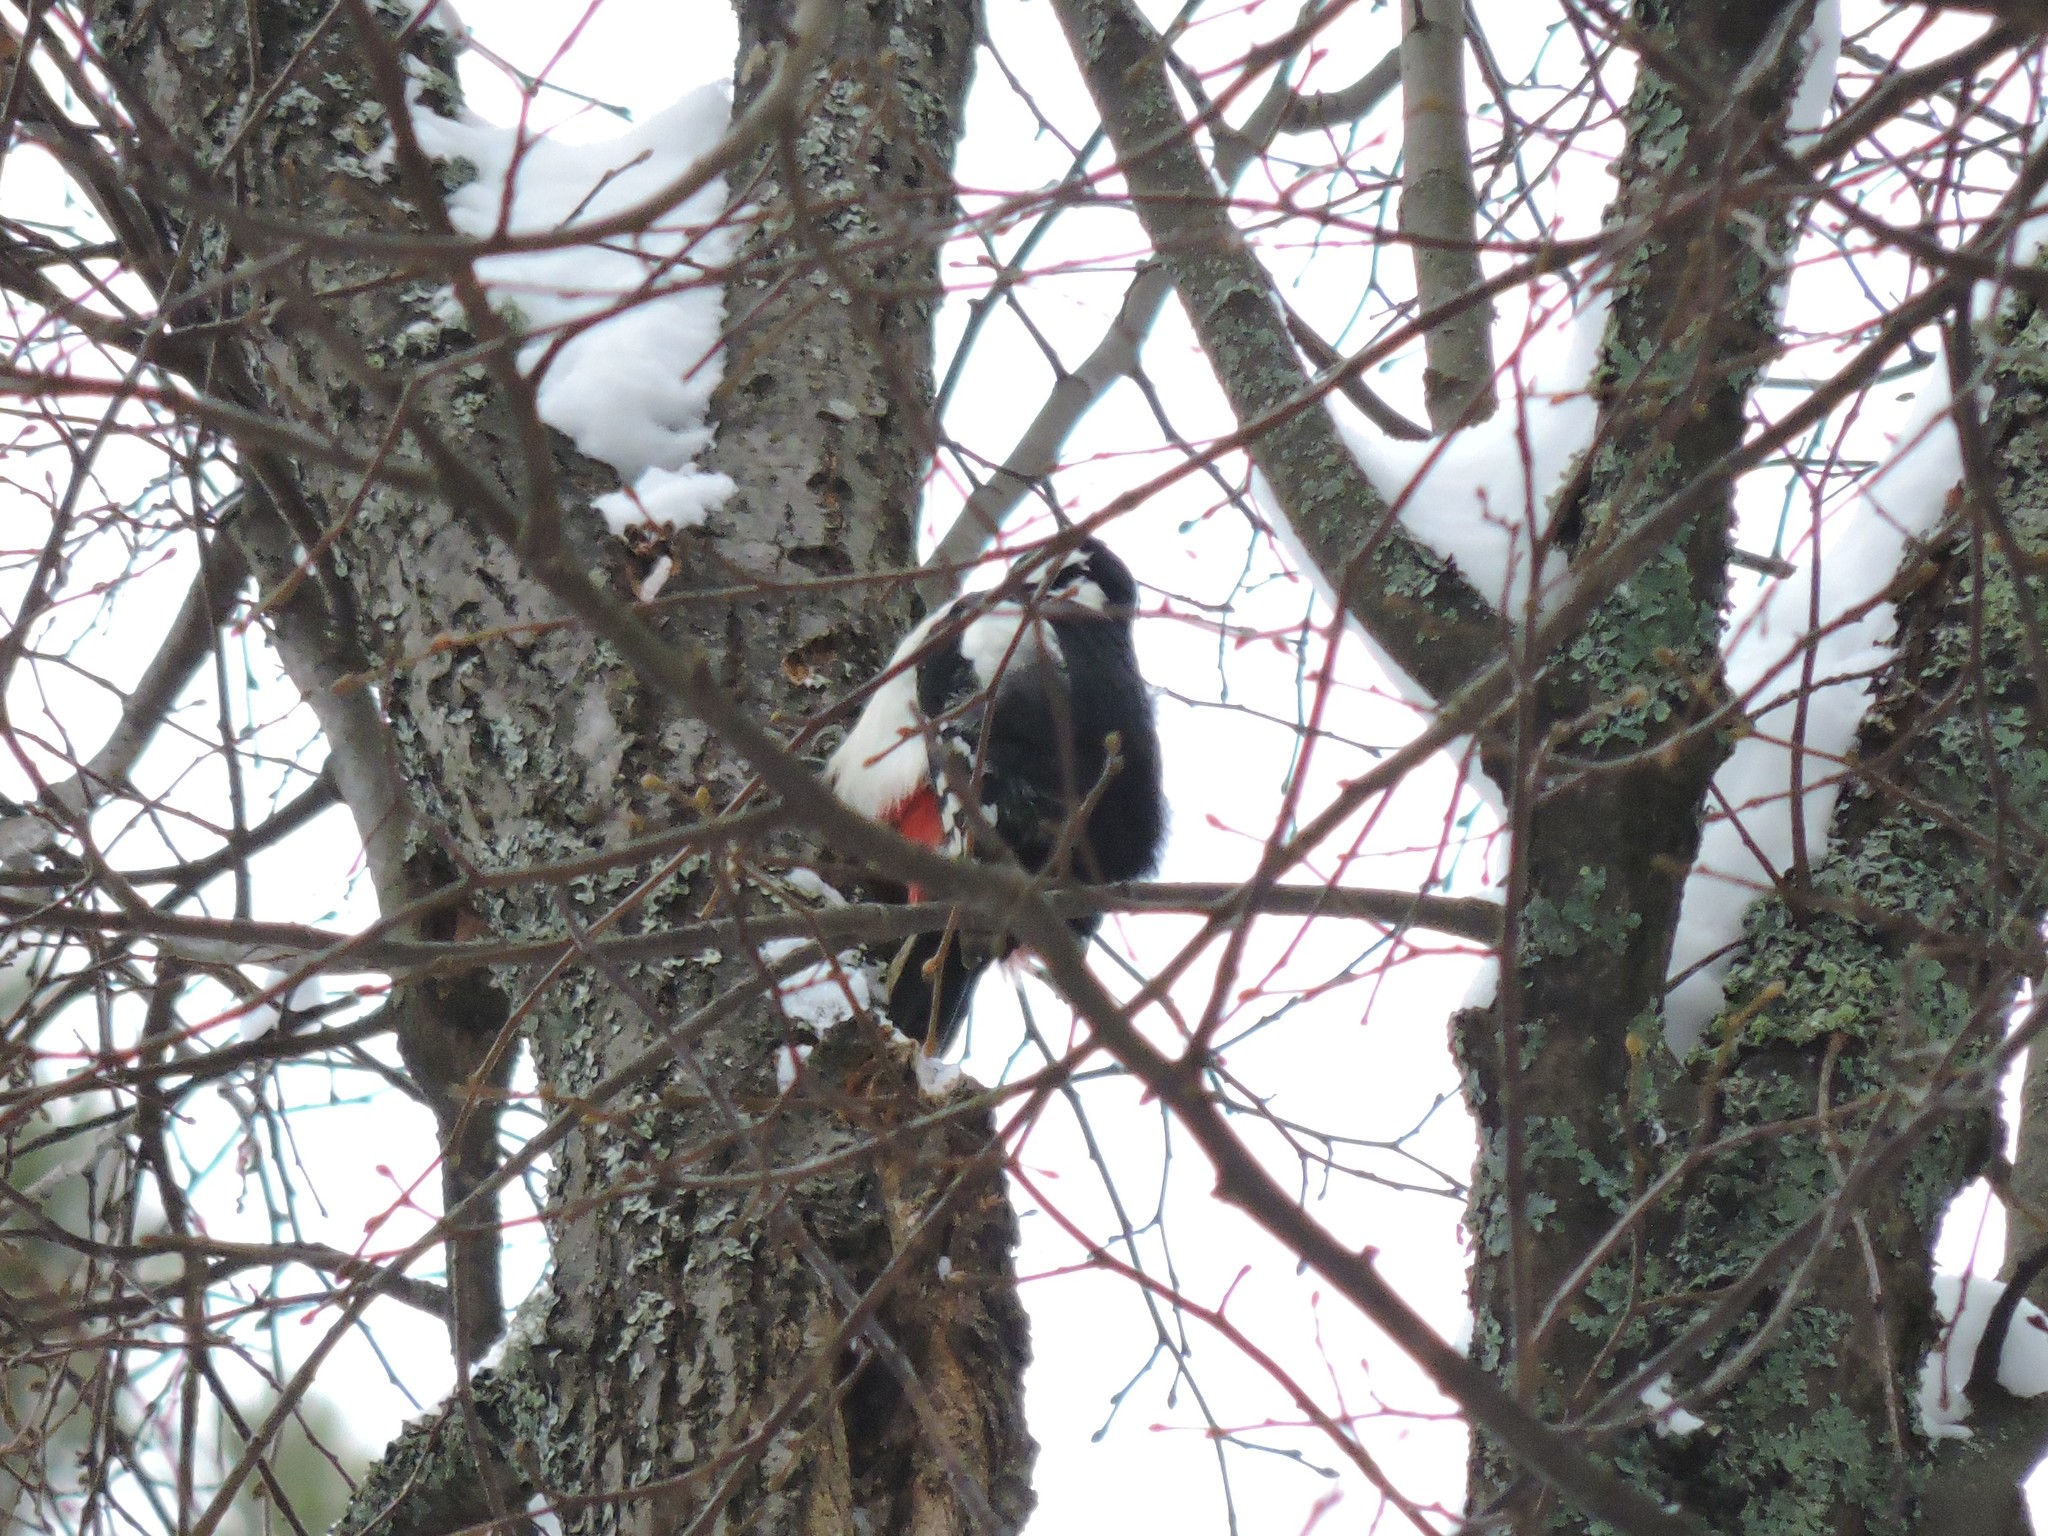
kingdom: Animalia
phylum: Chordata
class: Aves
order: Piciformes
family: Picidae
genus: Dendrocopos
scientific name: Dendrocopos major
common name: Great spotted woodpecker
